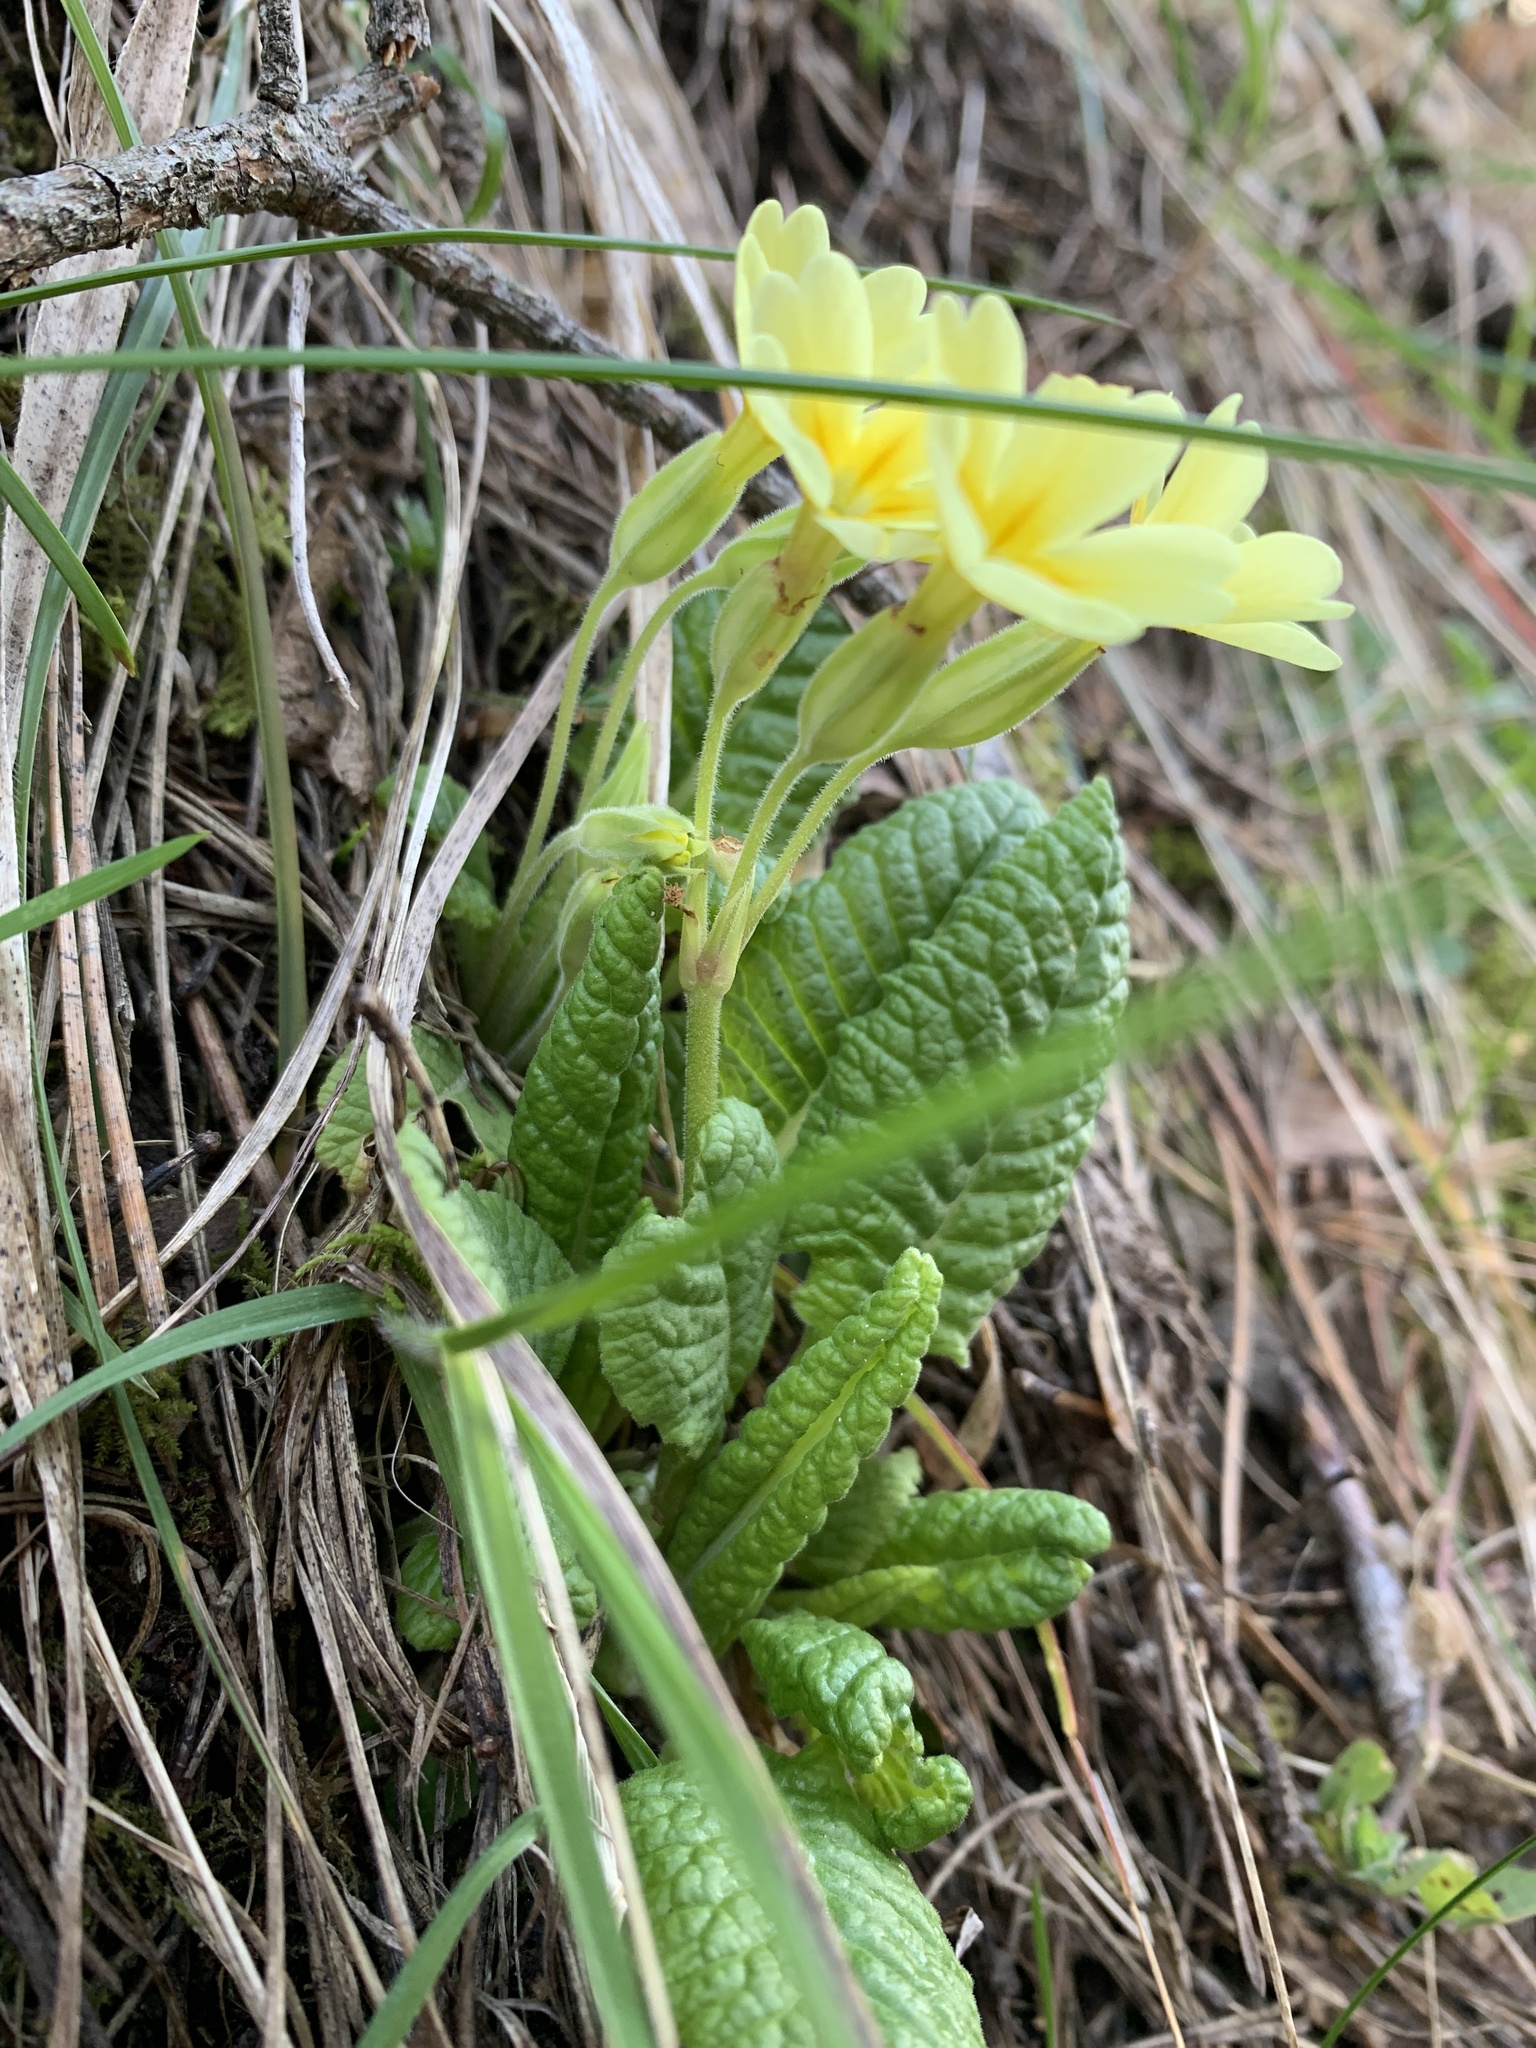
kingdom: Plantae
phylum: Tracheophyta
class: Magnoliopsida
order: Ericales
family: Primulaceae
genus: Primula
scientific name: Primula elatior
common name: Oxlip
